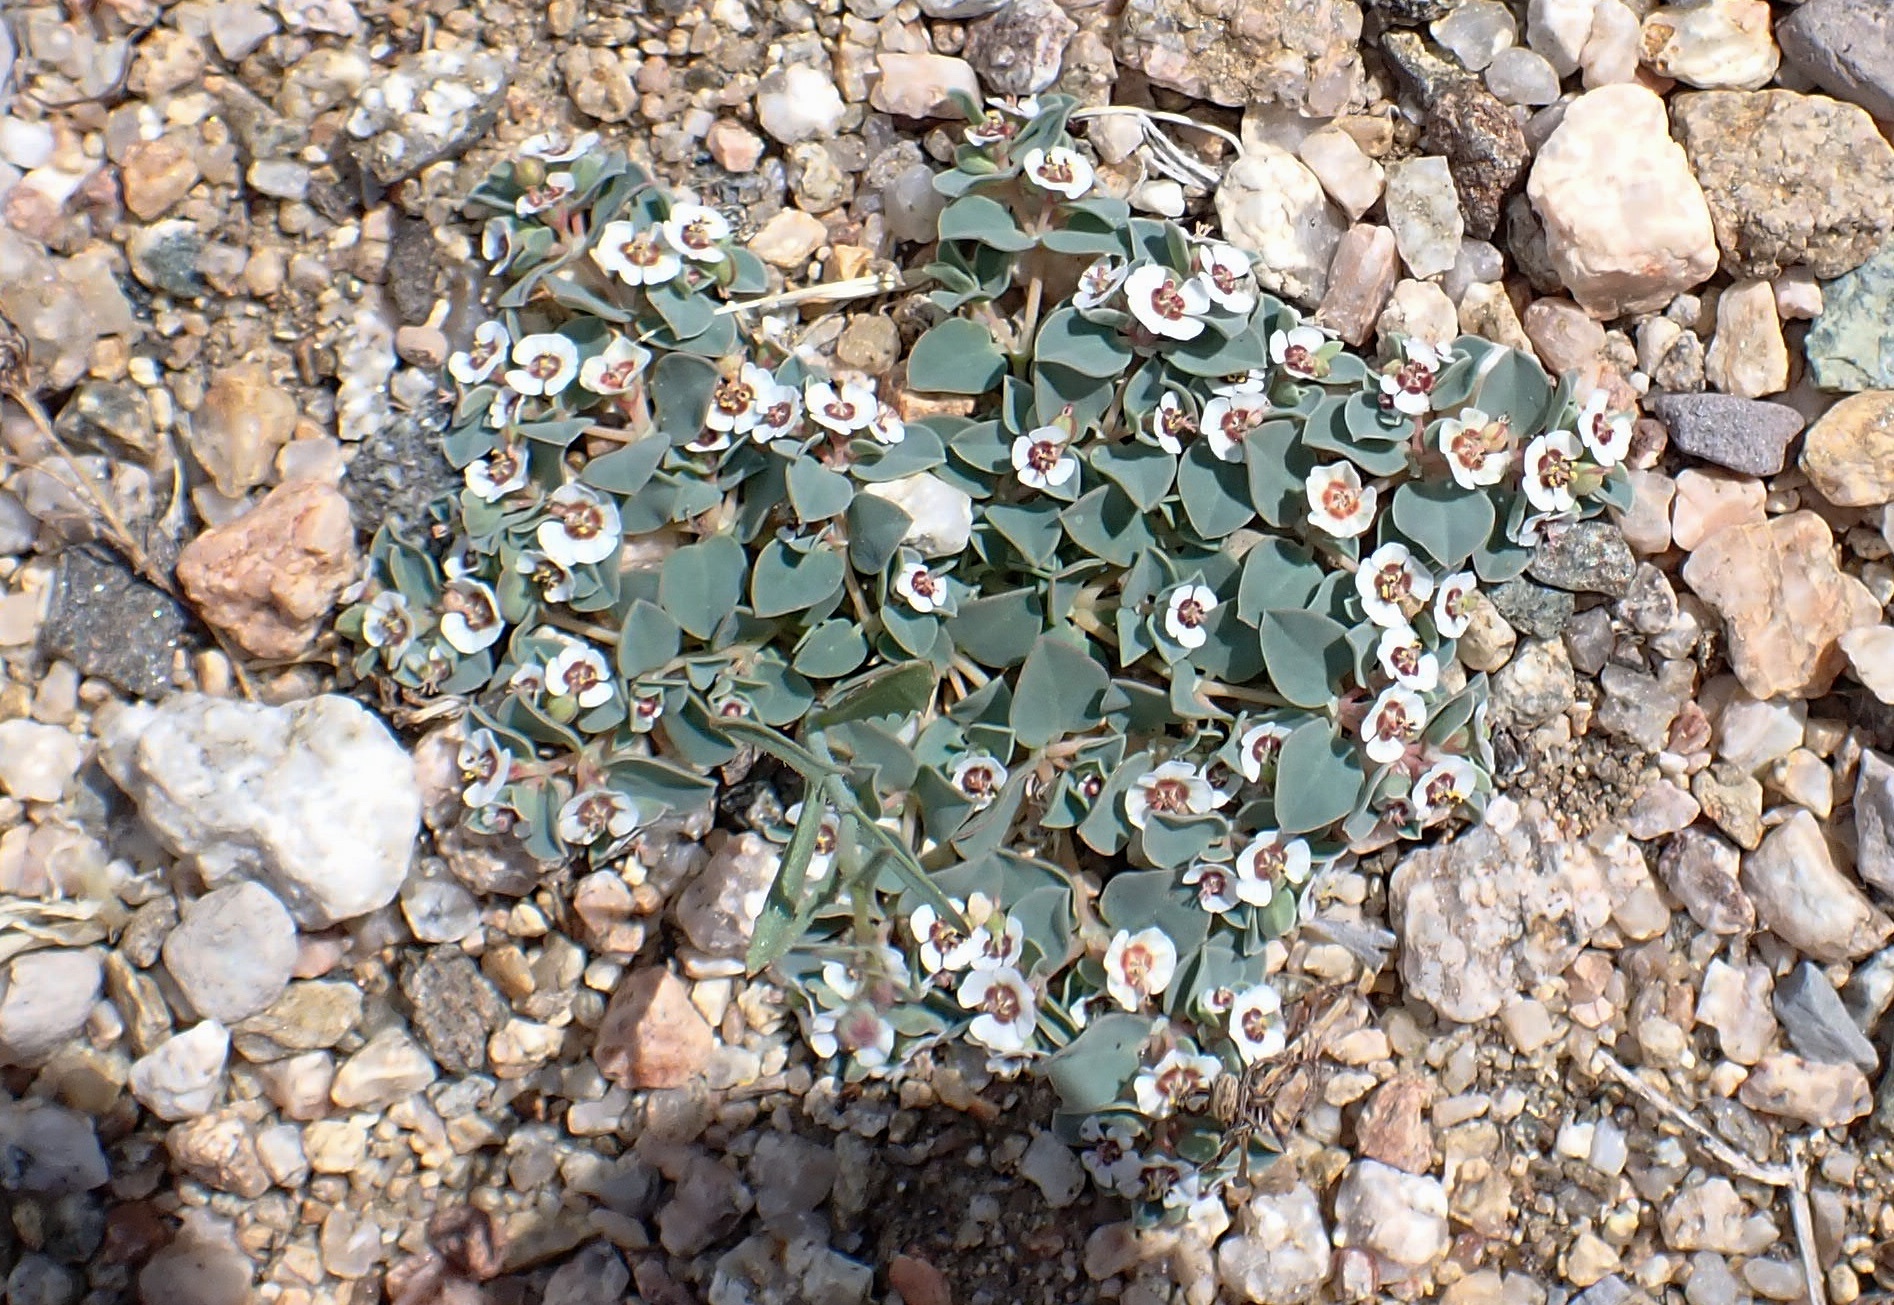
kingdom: Plantae
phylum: Tracheophyta
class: Magnoliopsida
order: Malpighiales
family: Euphorbiaceae
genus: Euphorbia
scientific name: Euphorbia albomarginata
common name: Whitemargin sandmat
